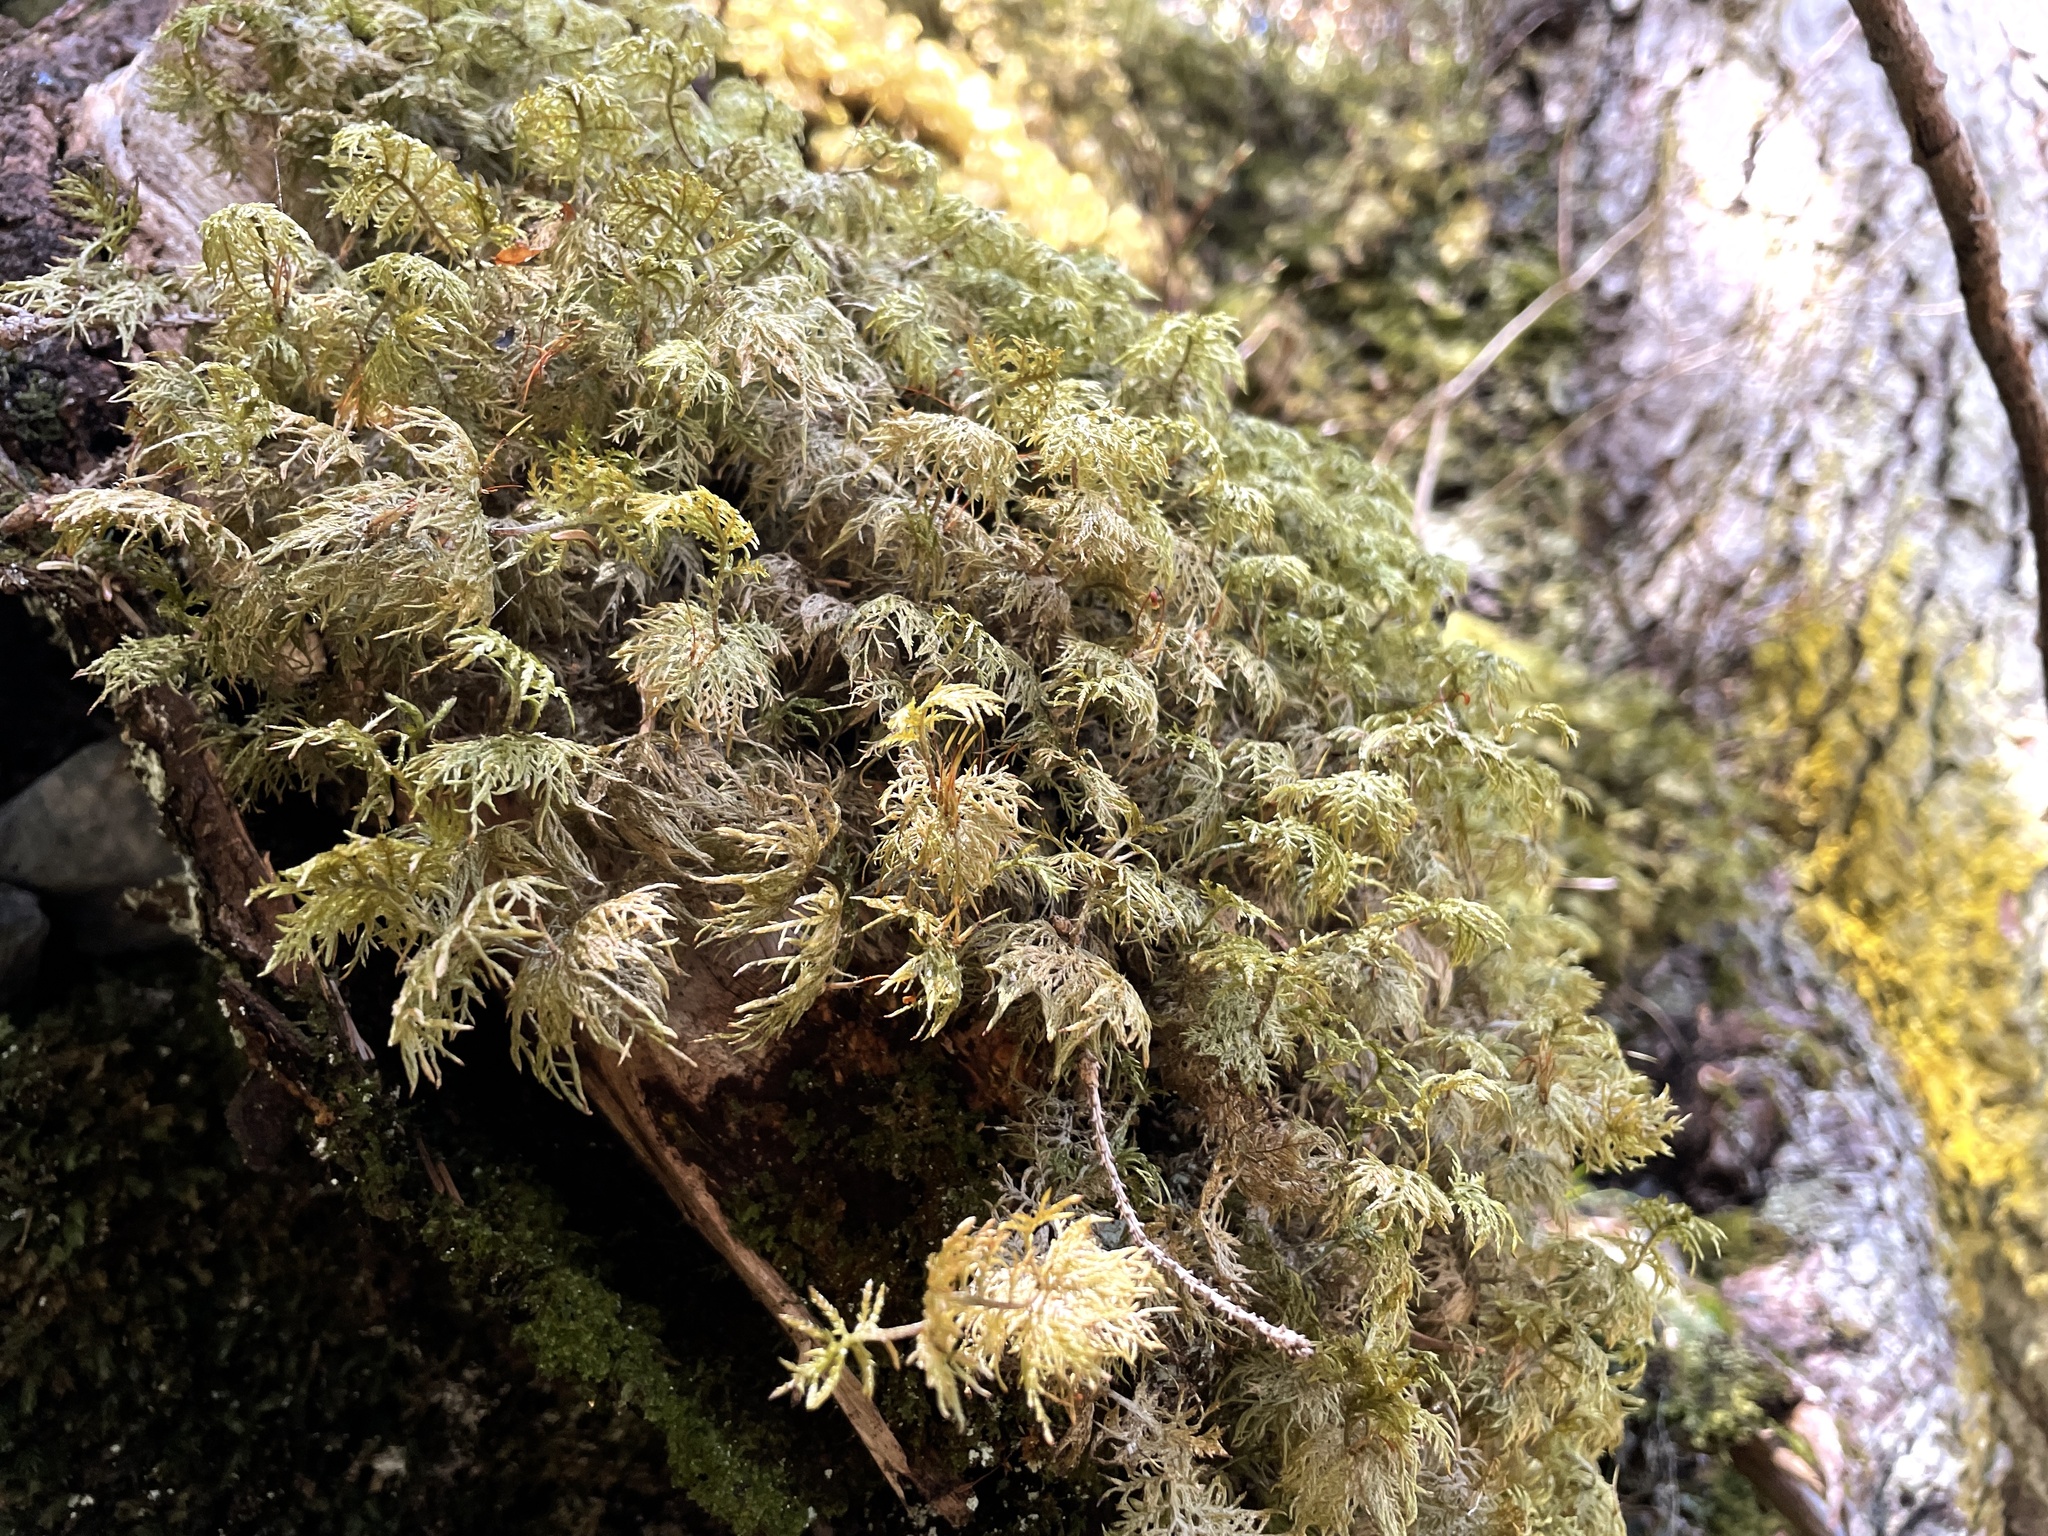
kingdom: Plantae
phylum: Bryophyta
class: Bryopsida
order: Hypnales
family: Hylocomiaceae
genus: Hylocomium
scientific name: Hylocomium splendens
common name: Stairstep moss
